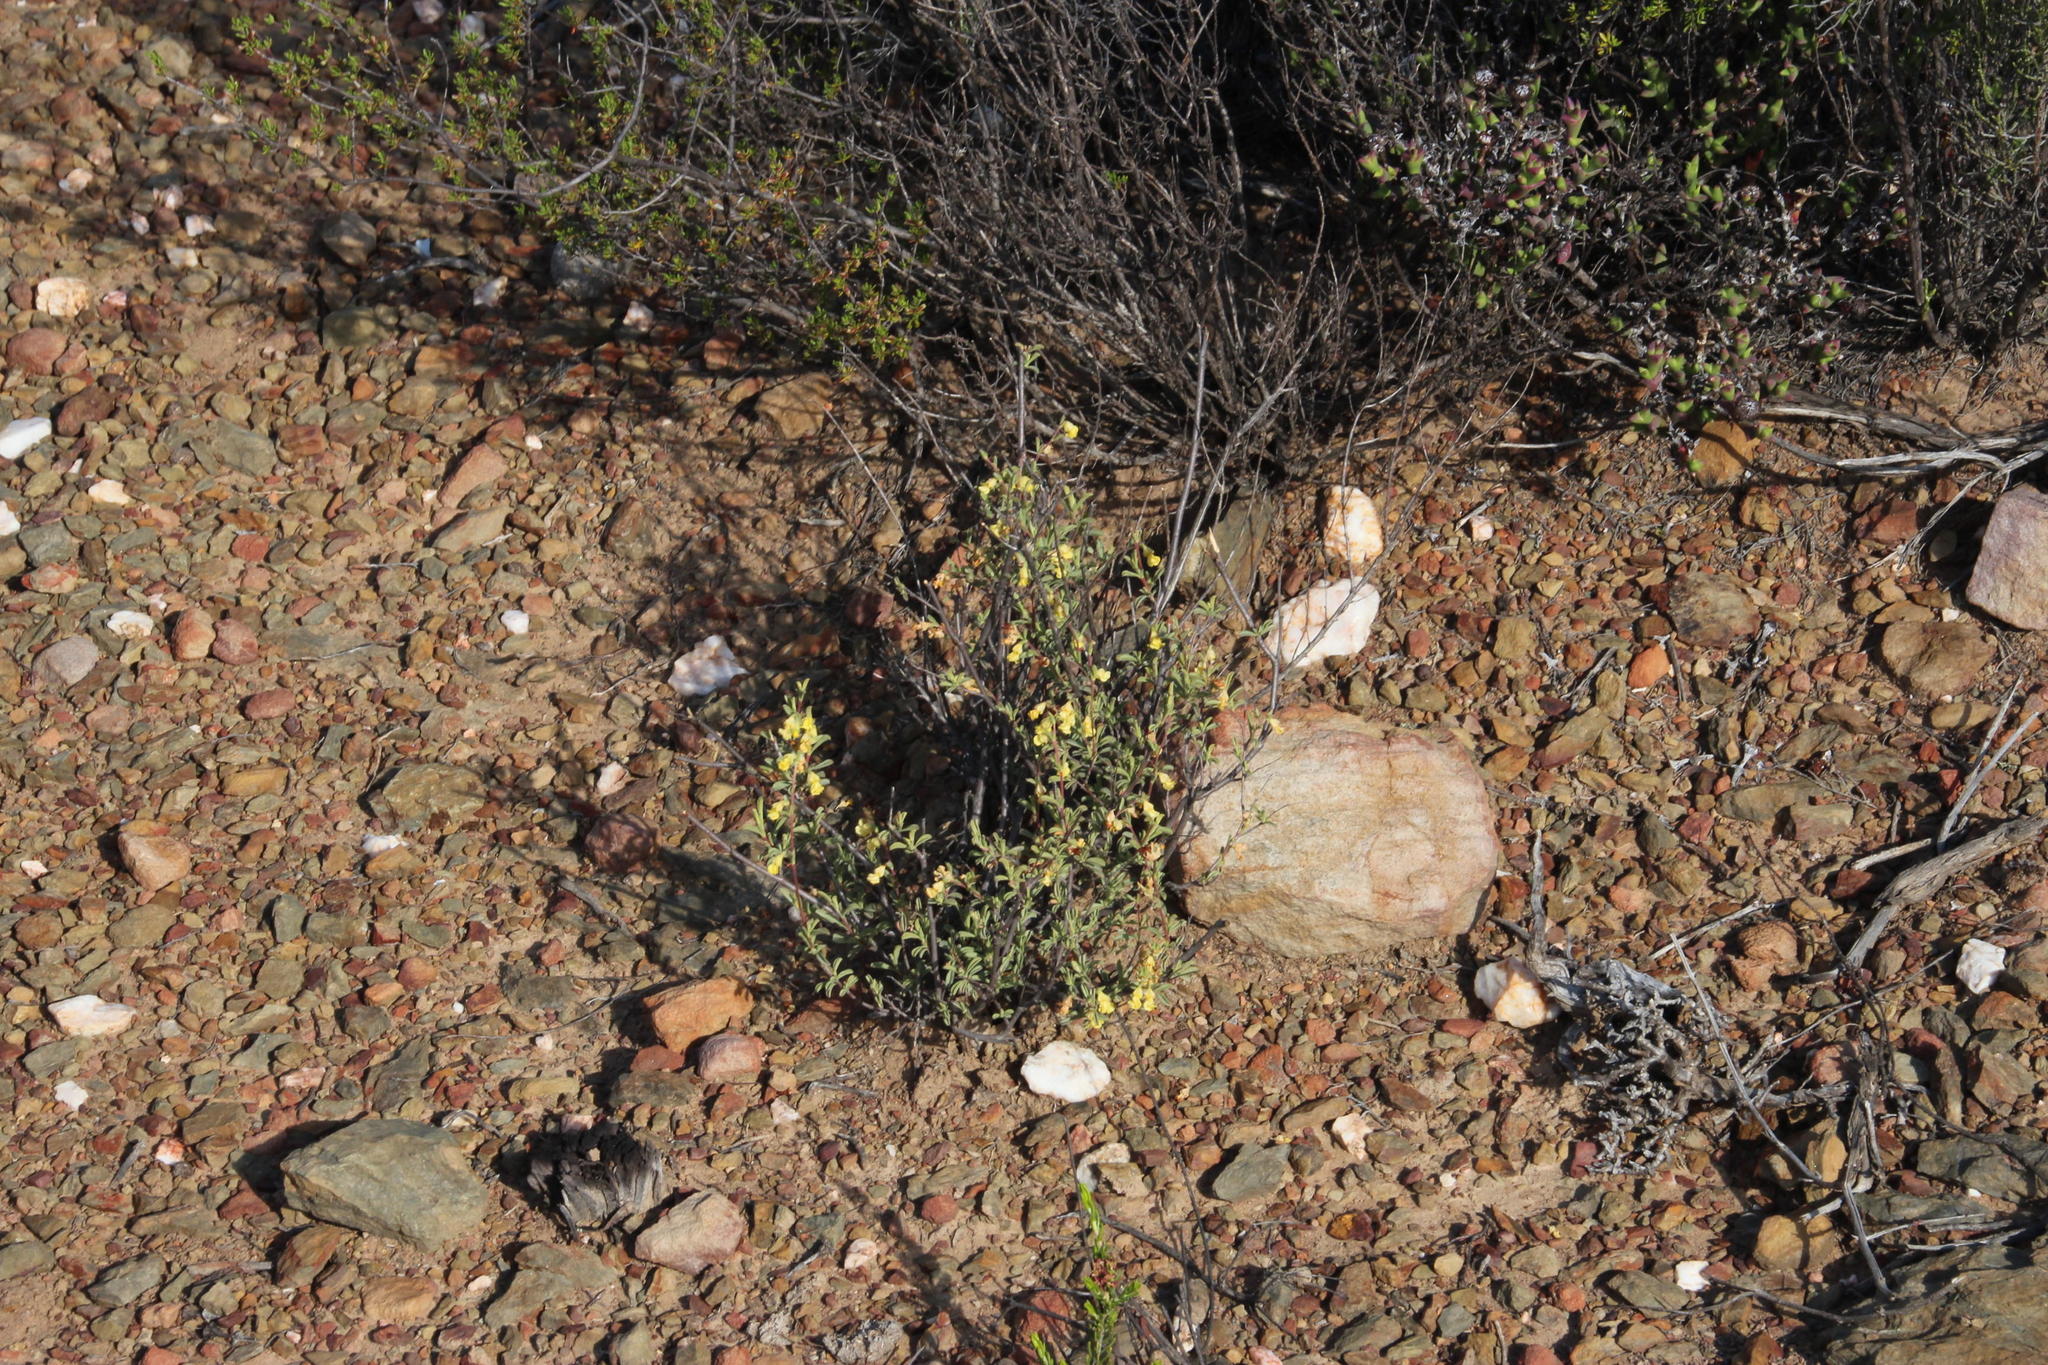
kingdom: Plantae
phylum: Tracheophyta
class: Magnoliopsida
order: Malvales
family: Malvaceae
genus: Hermannia
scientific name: Hermannia odorata
